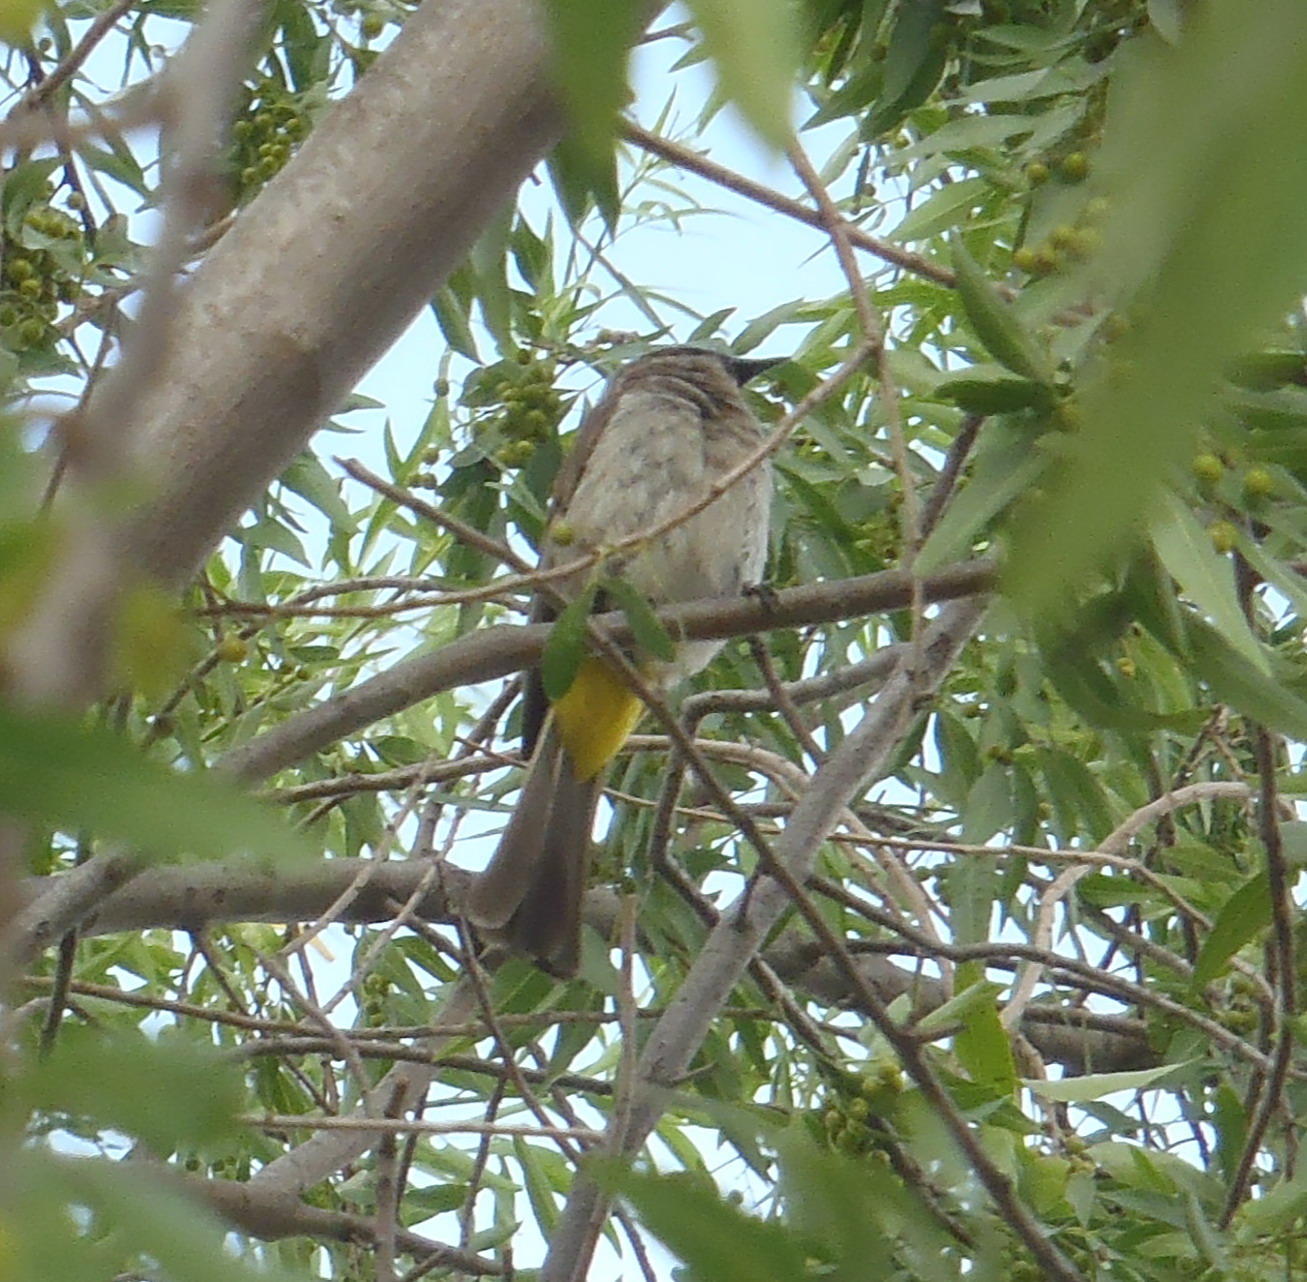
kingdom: Animalia
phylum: Chordata
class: Aves
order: Passeriformes
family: Pycnonotidae
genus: Pycnonotus
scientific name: Pycnonotus barbatus
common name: Common bulbul
